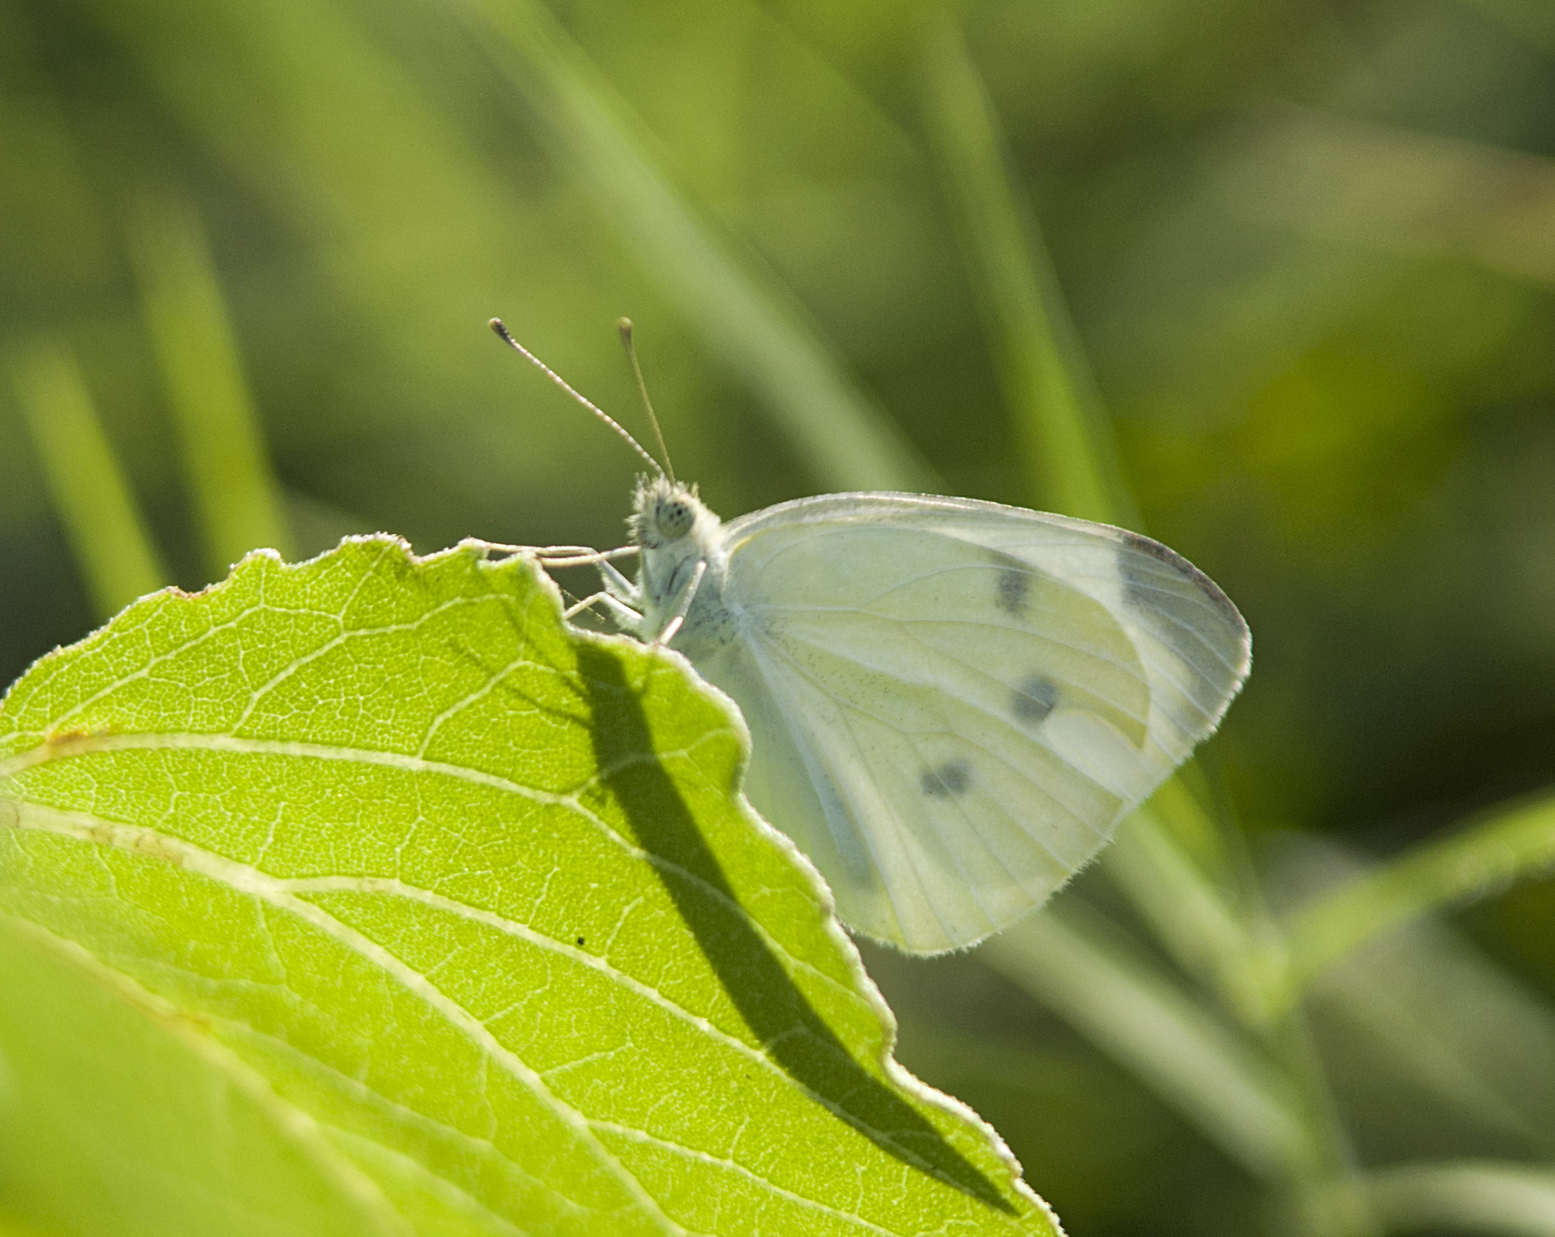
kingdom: Animalia
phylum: Arthropoda
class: Insecta
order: Lepidoptera
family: Pieridae
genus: Pieris
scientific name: Pieris rapae
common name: Small white
